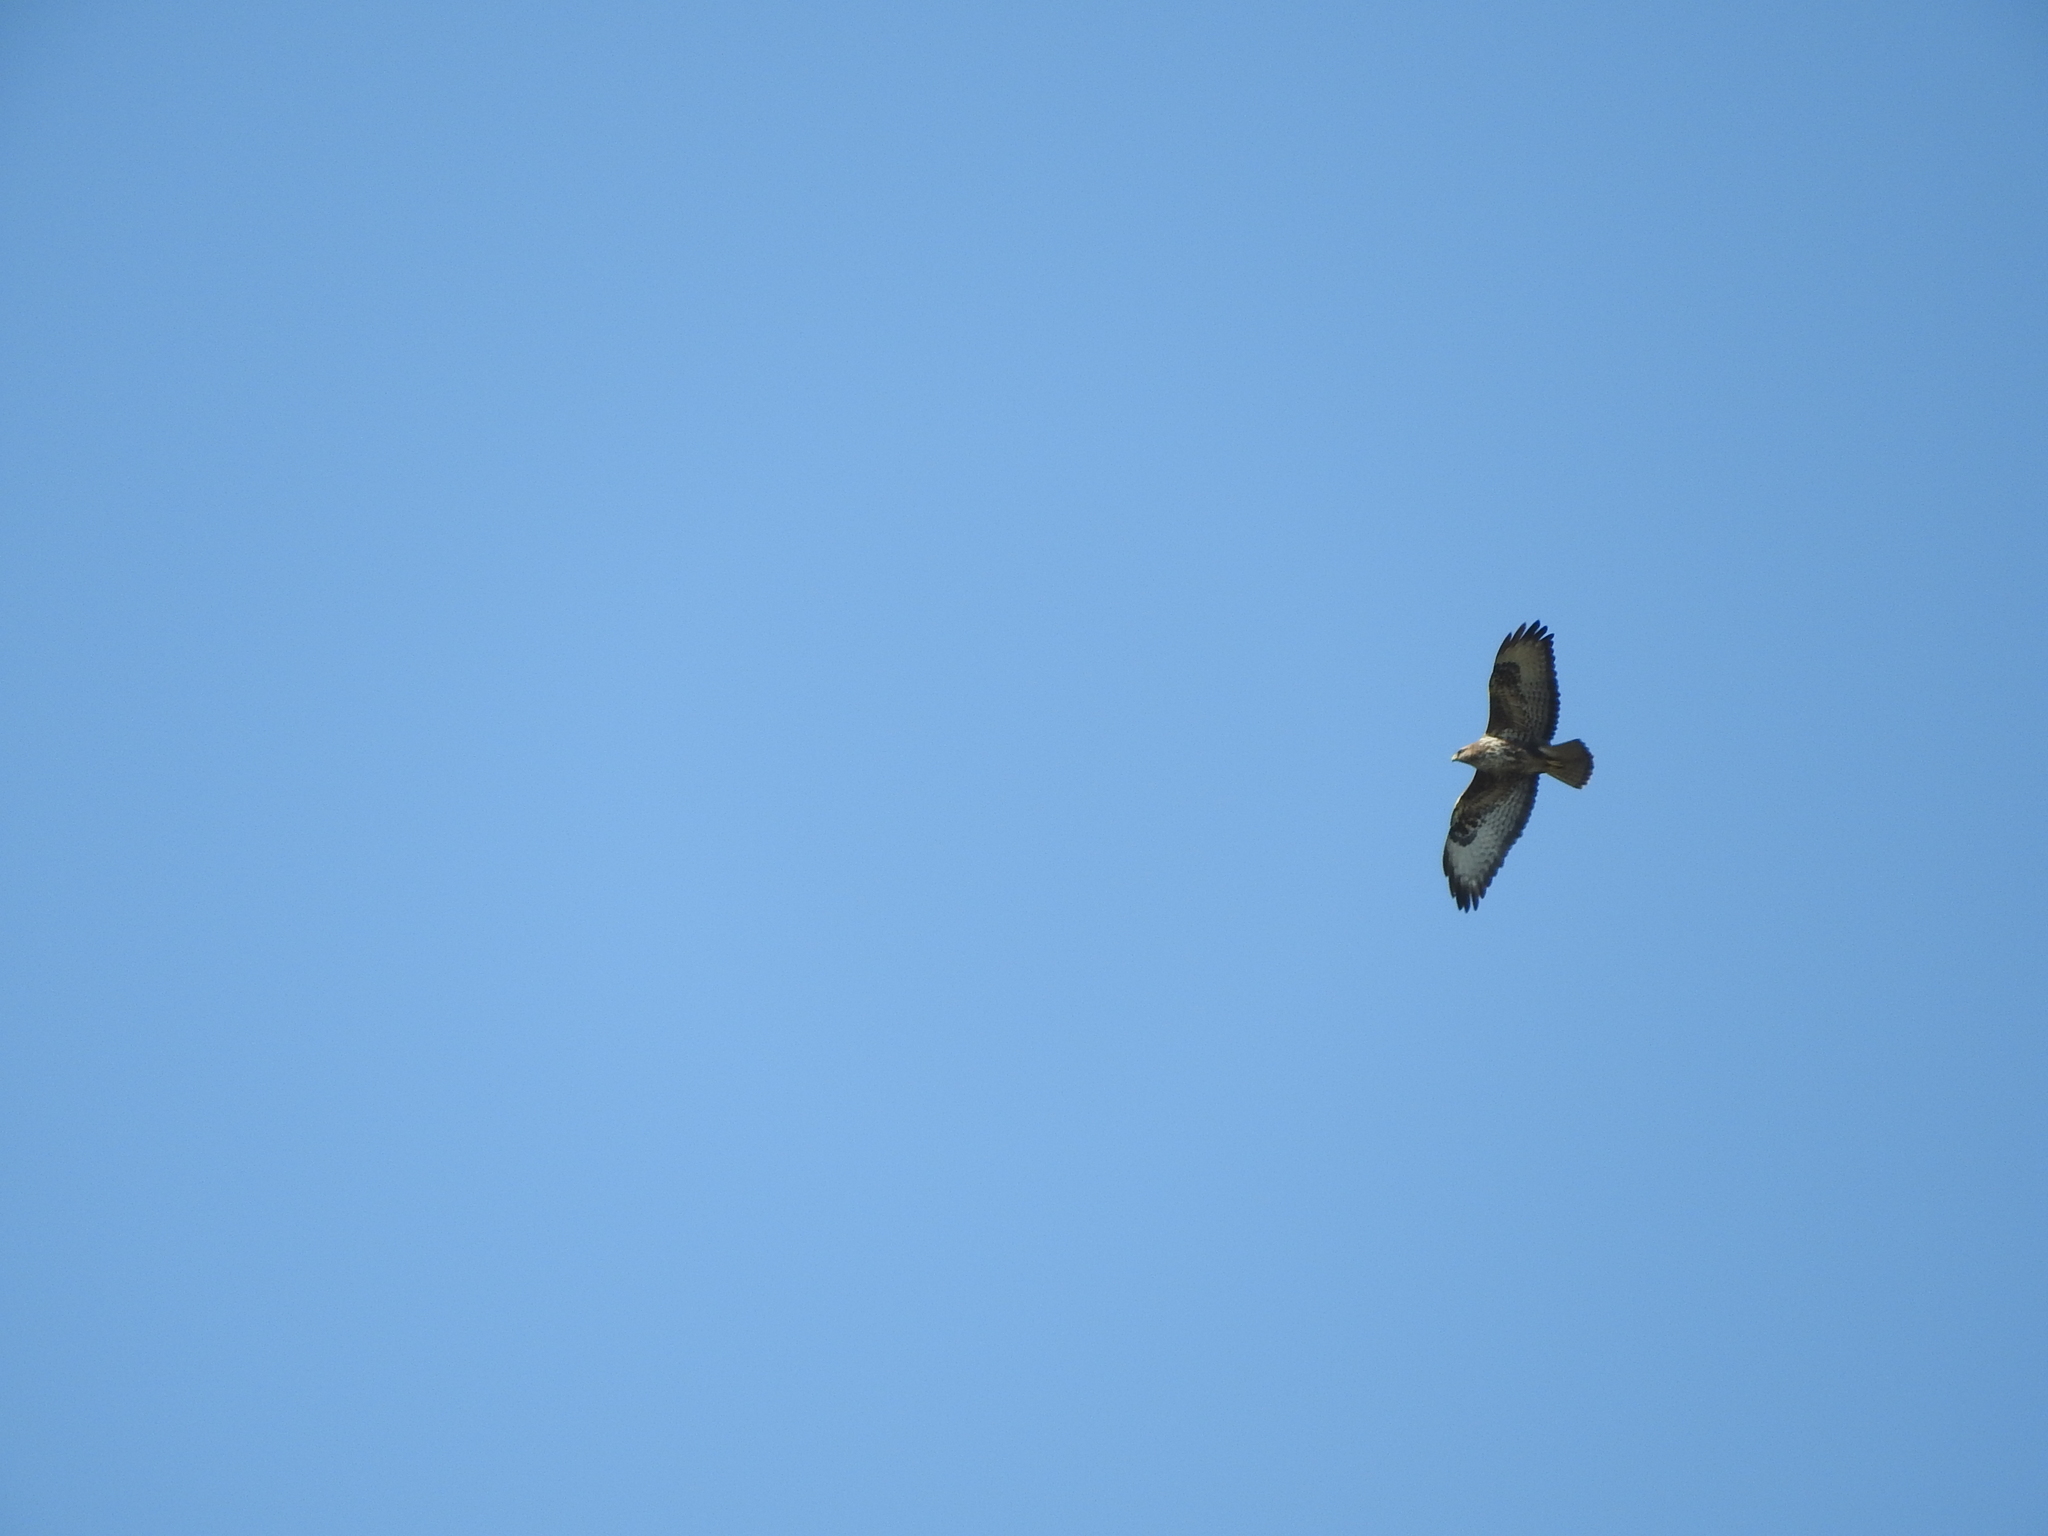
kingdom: Animalia
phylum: Chordata
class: Aves
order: Accipitriformes
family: Accipitridae
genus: Buteo
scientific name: Buteo buteo
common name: Common buzzard
